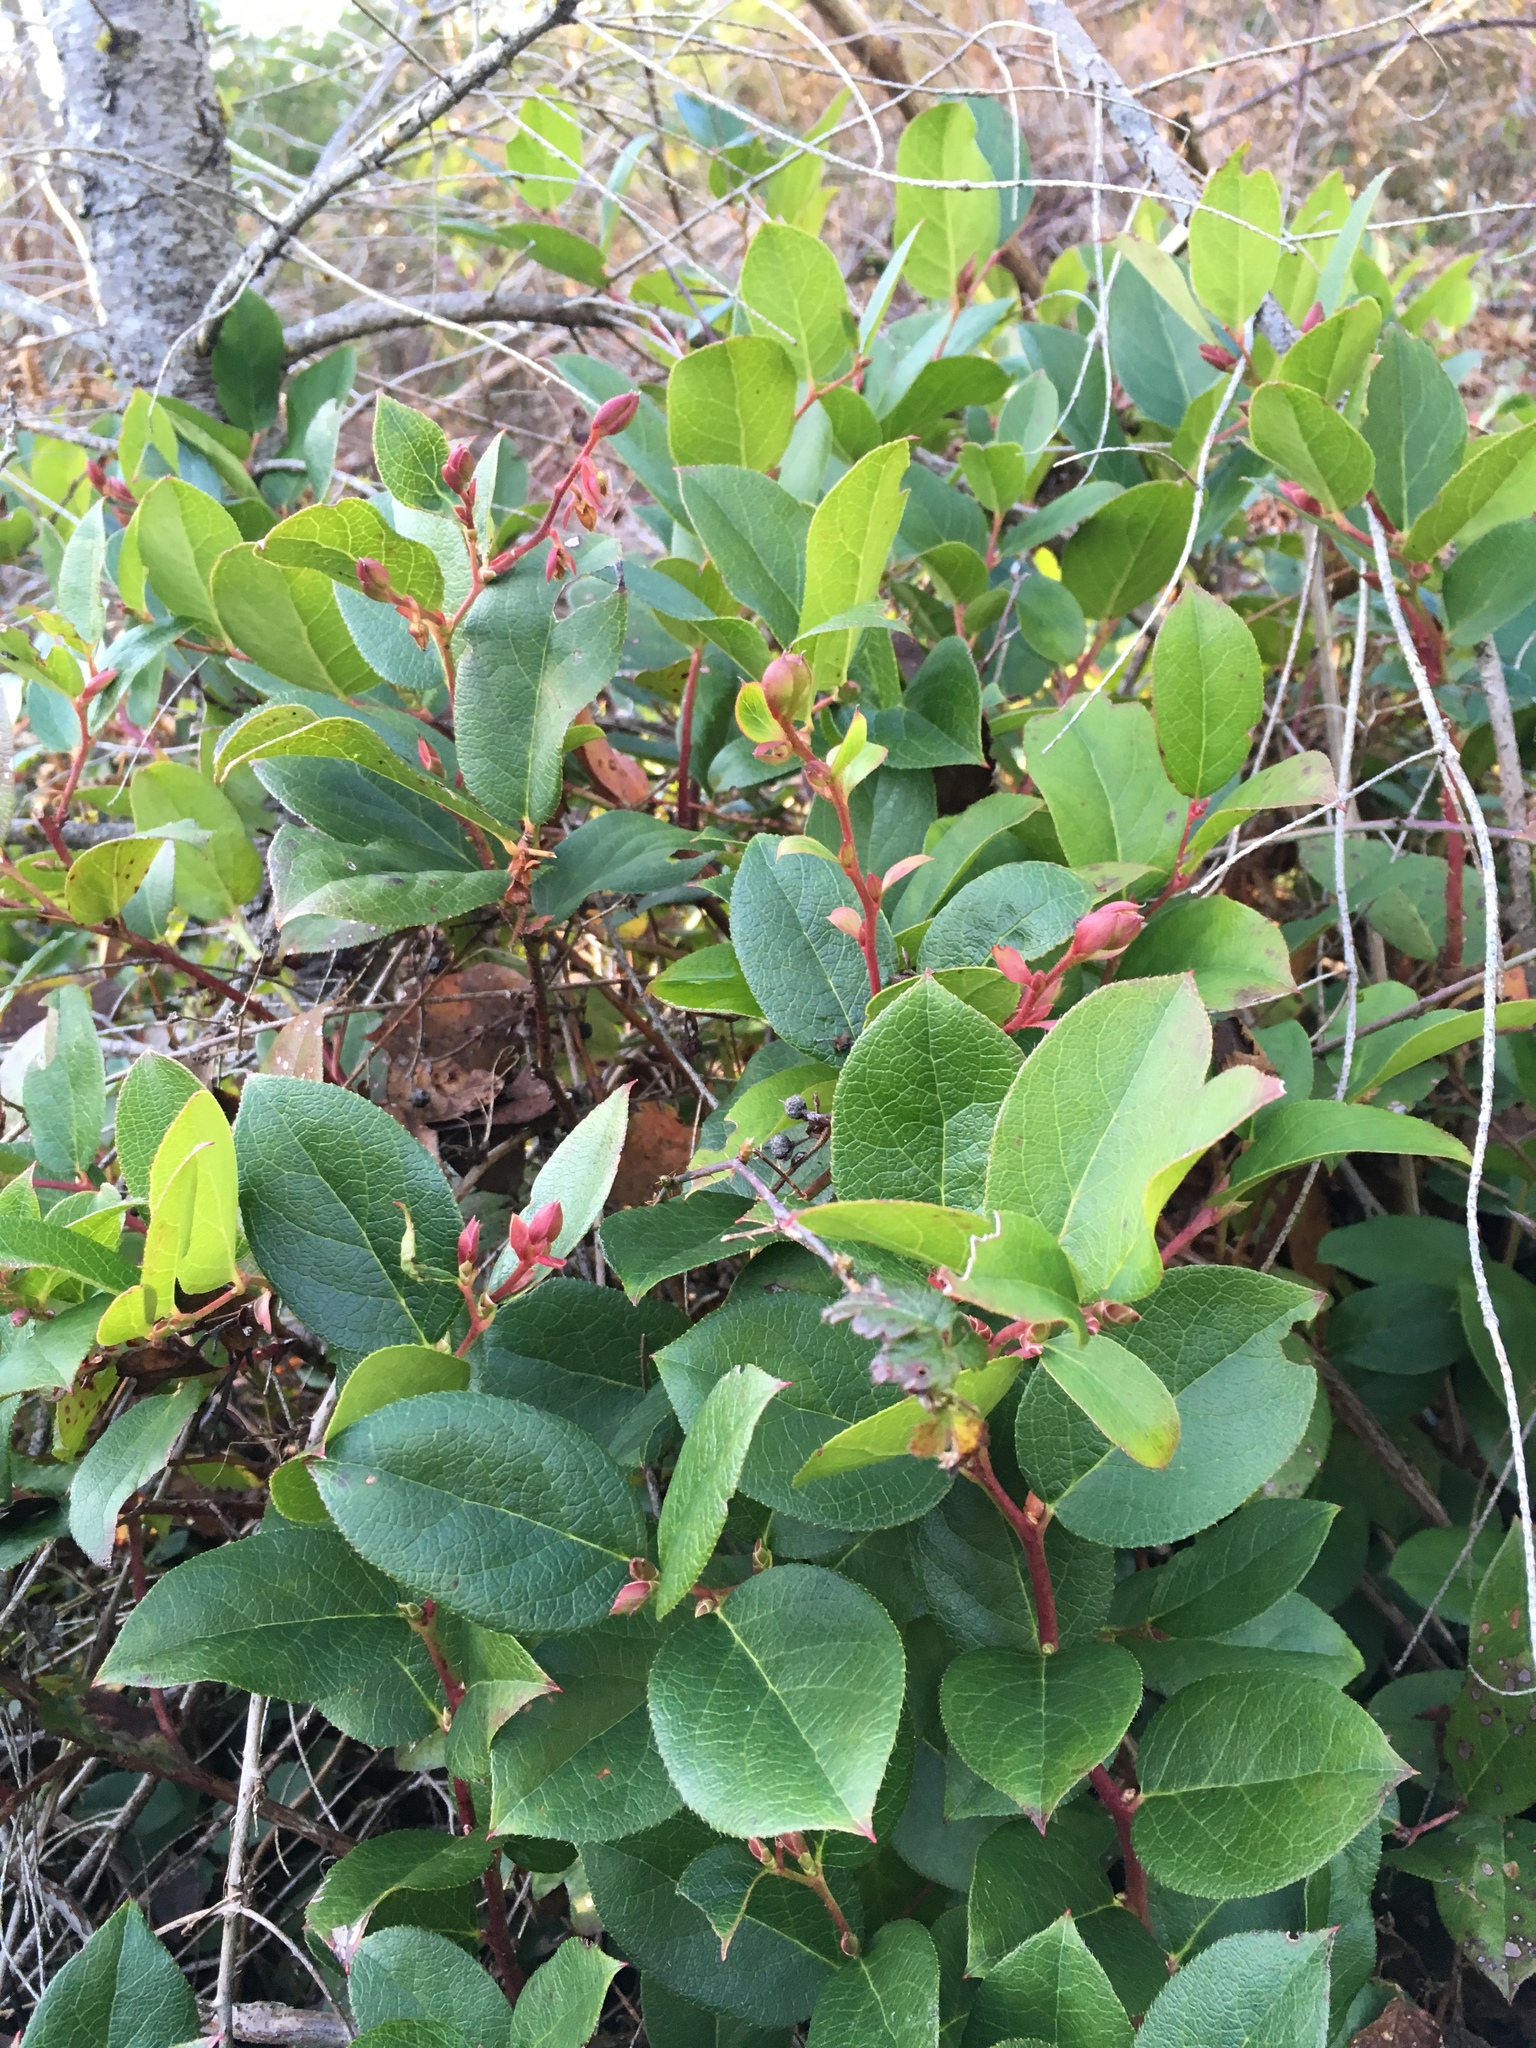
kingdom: Plantae
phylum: Tracheophyta
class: Magnoliopsida
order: Ericales
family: Ericaceae
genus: Gaultheria
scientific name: Gaultheria shallon
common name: Shallon
